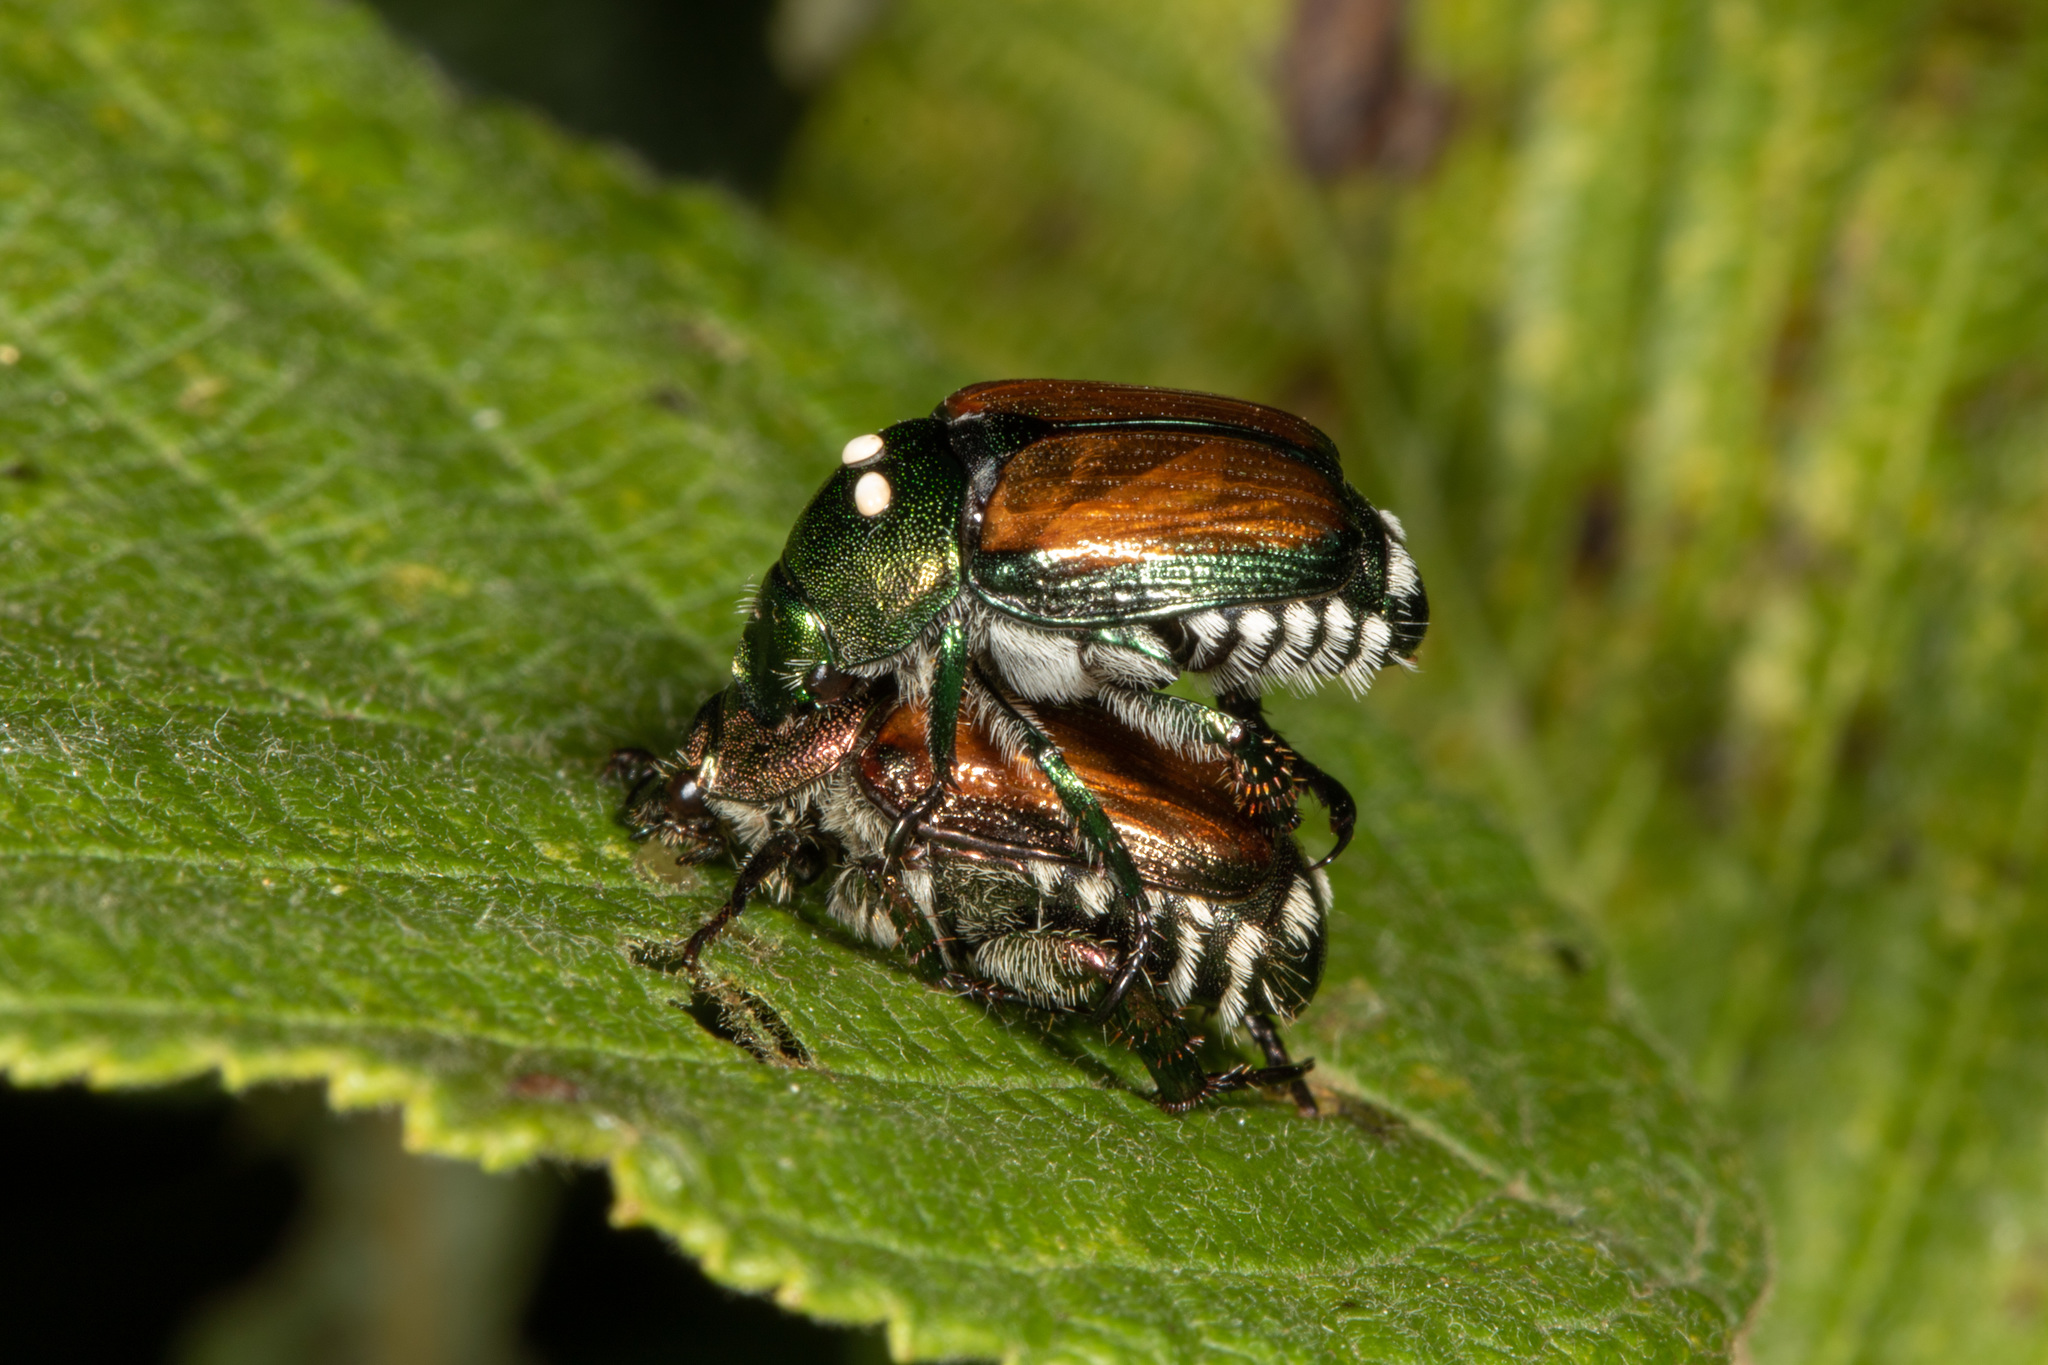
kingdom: Animalia
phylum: Arthropoda
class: Insecta
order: Diptera
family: Tachinidae
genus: Istocheta
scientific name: Istocheta aldrichi
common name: Parasitic wasp
